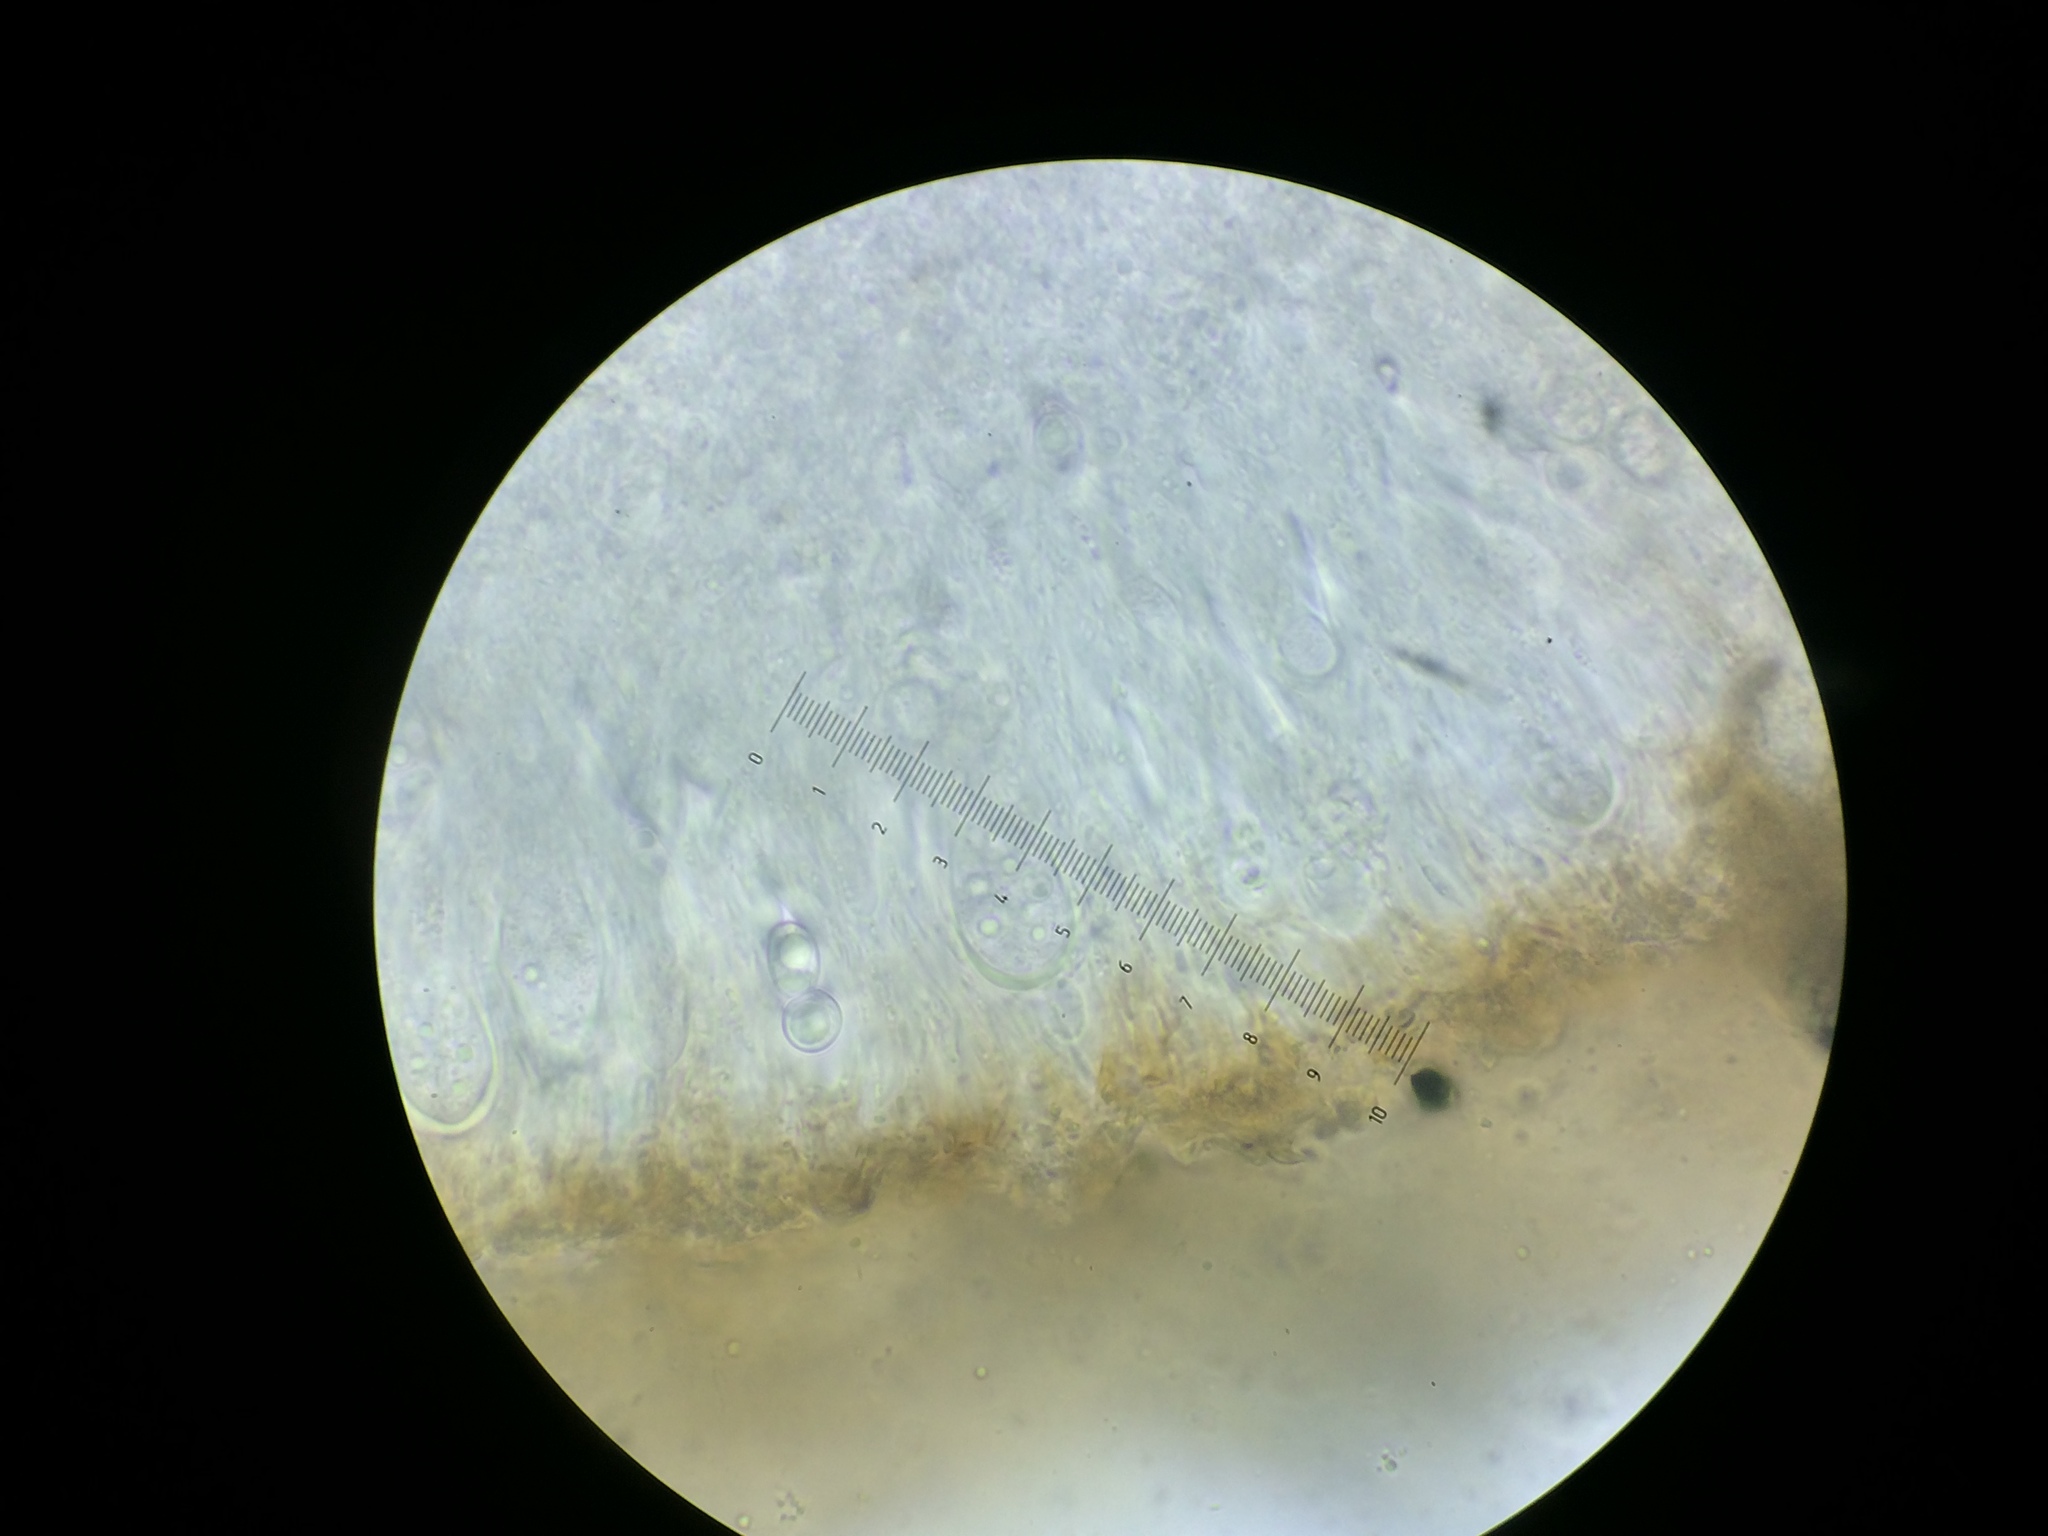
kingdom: Fungi
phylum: Ascomycota
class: Lecanoromycetes
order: Lecanorales
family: Lecanoraceae
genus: Lecanora
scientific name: Lecanora praesistens
